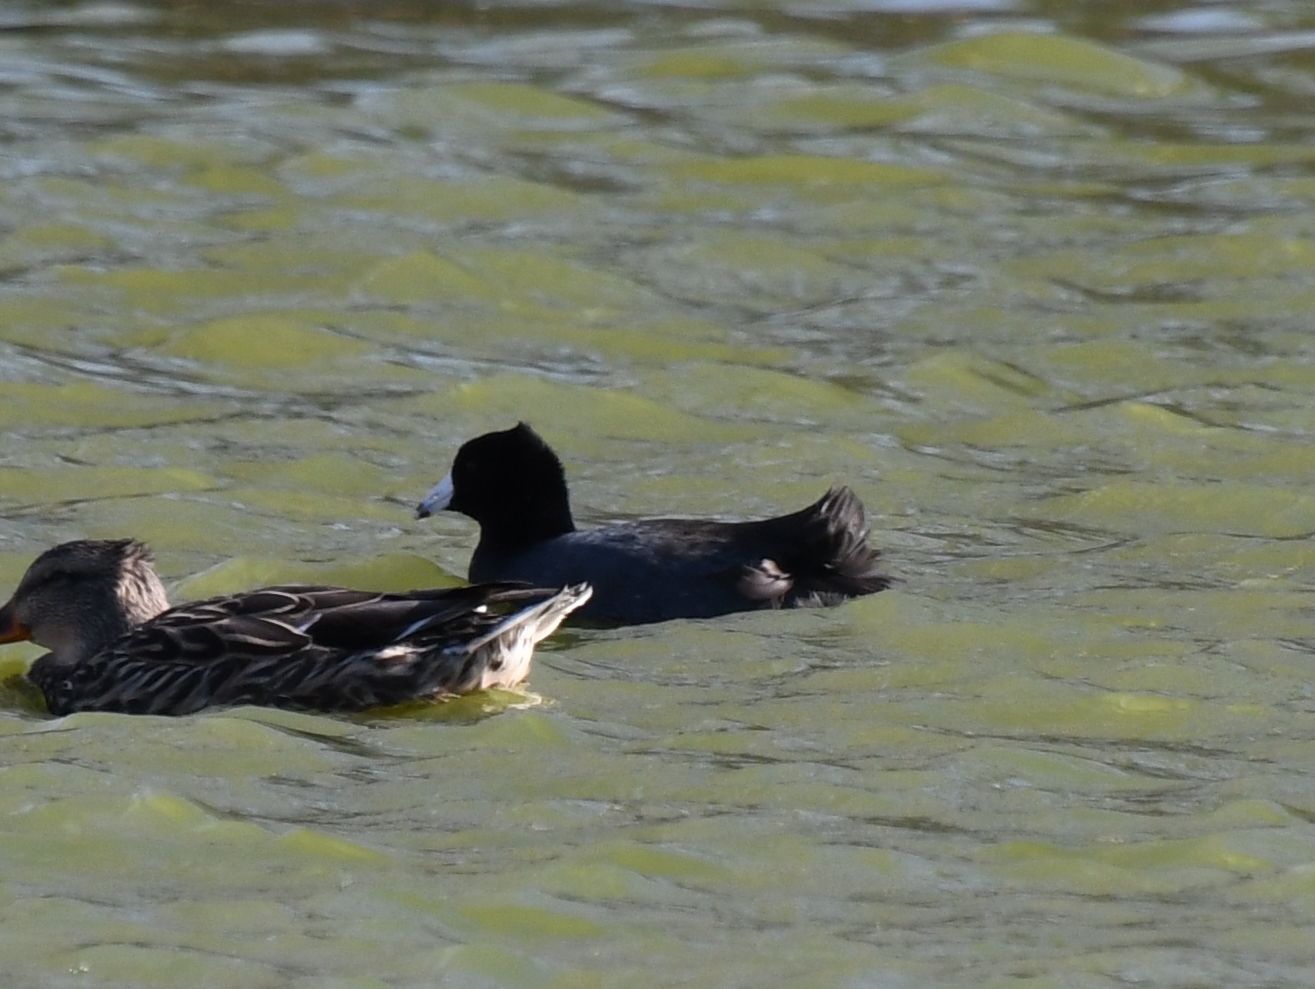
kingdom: Animalia
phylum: Chordata
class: Aves
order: Gruiformes
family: Rallidae
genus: Fulica
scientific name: Fulica americana
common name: American coot
